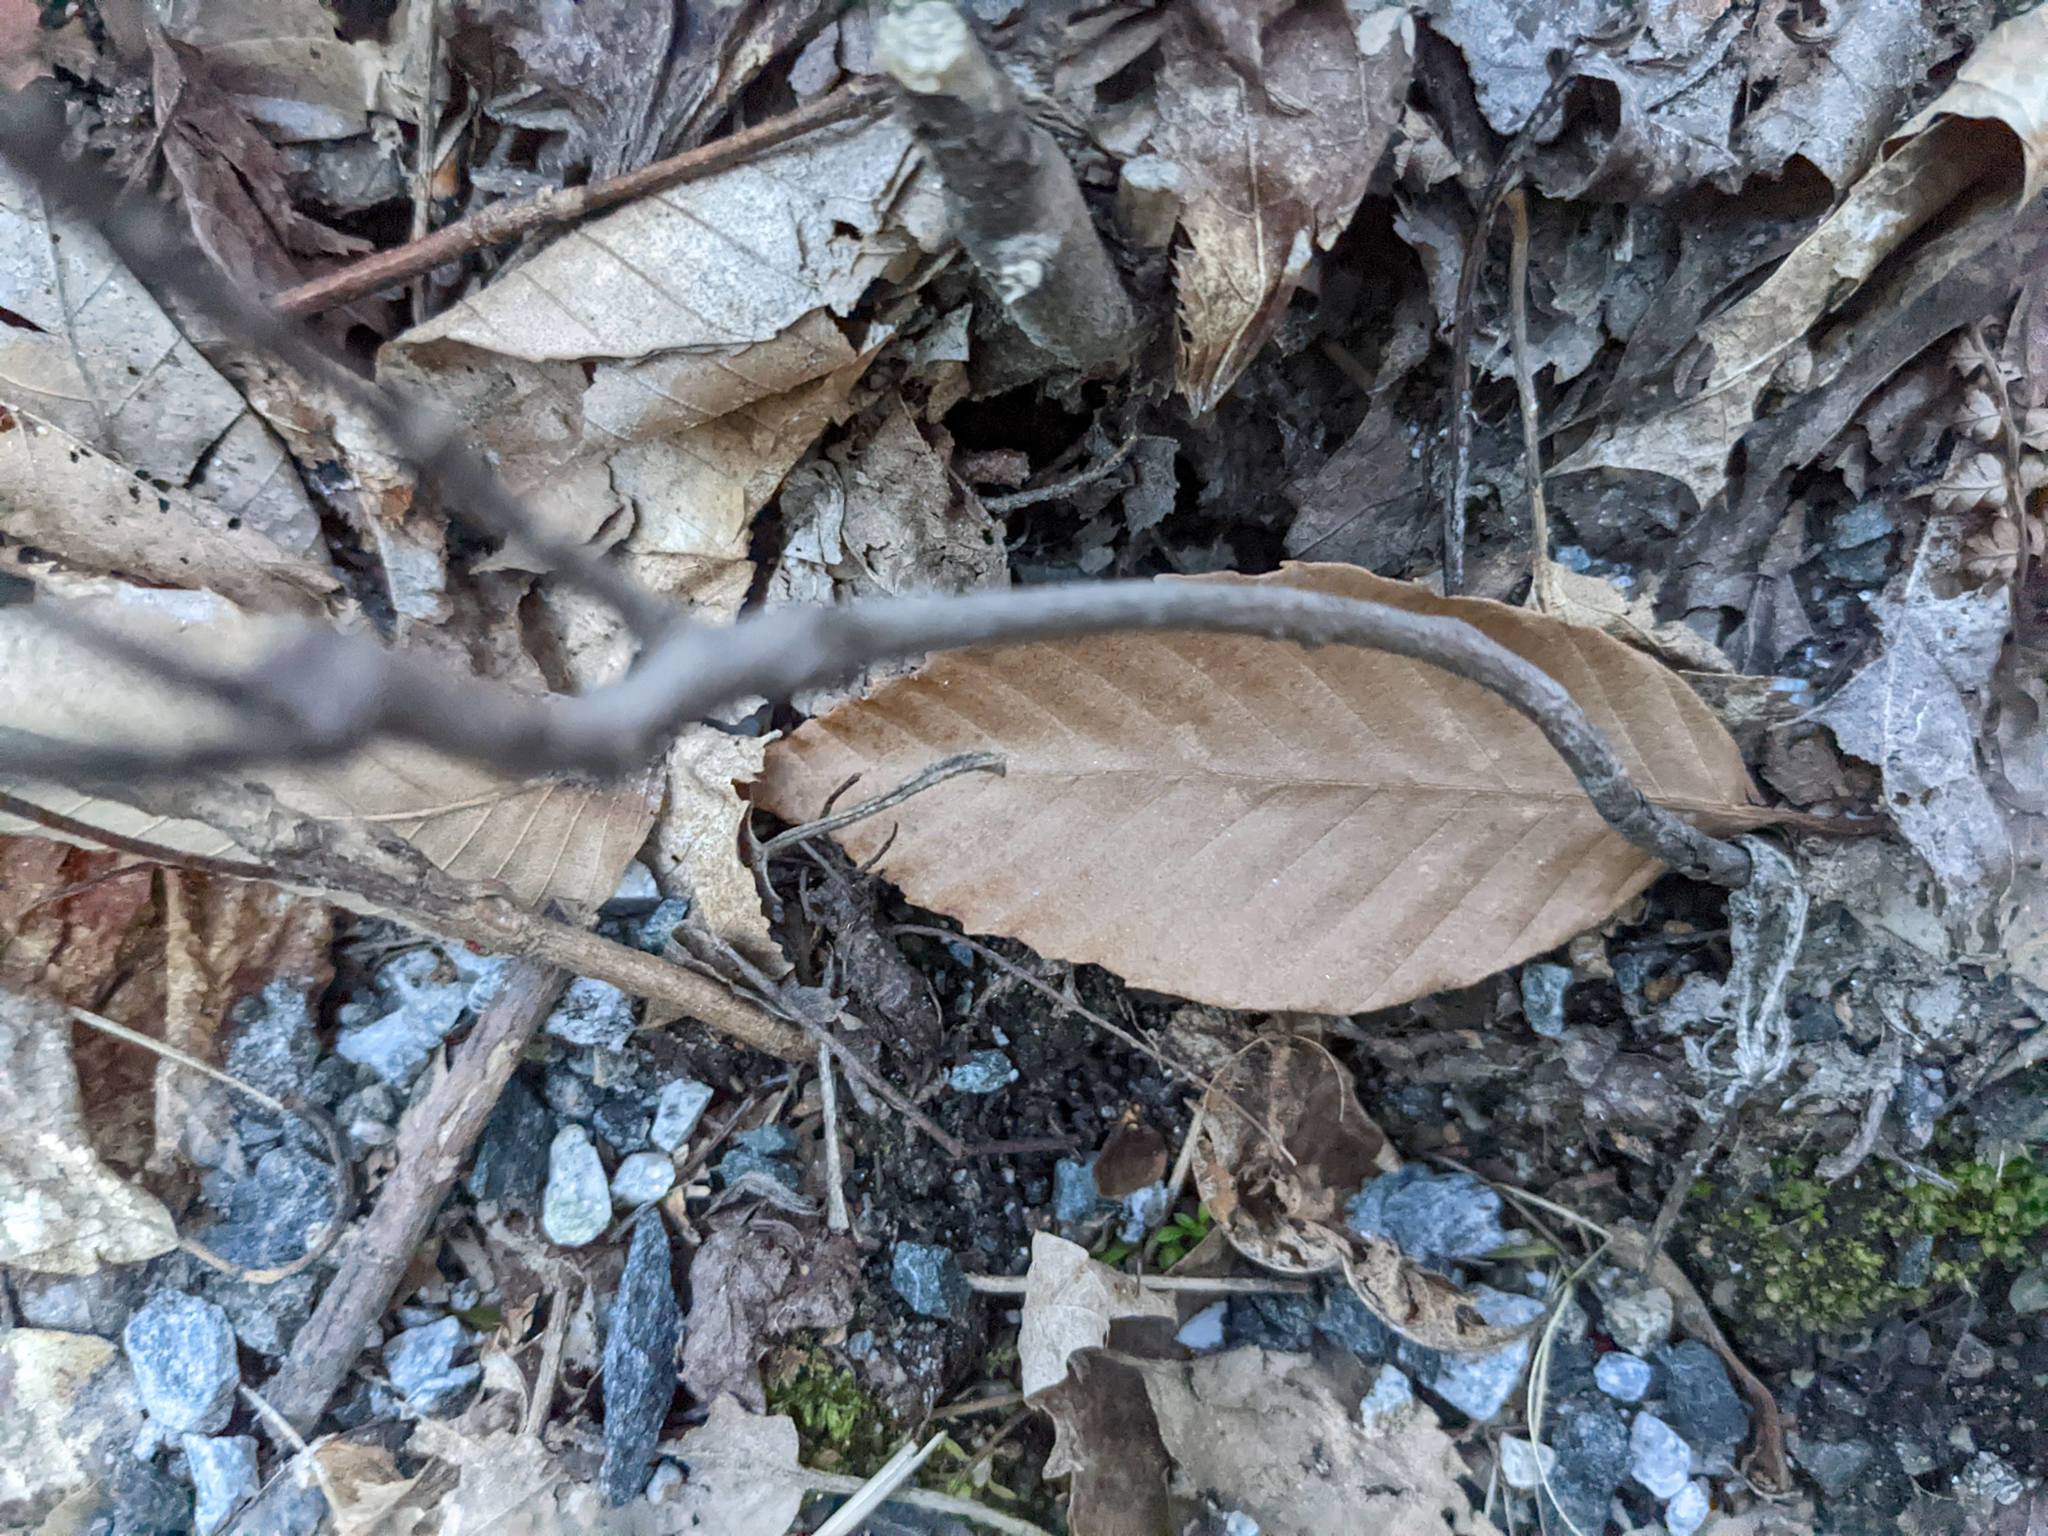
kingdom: Plantae
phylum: Tracheophyta
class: Magnoliopsida
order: Fagales
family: Fagaceae
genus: Fagus
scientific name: Fagus grandifolia
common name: American beech
